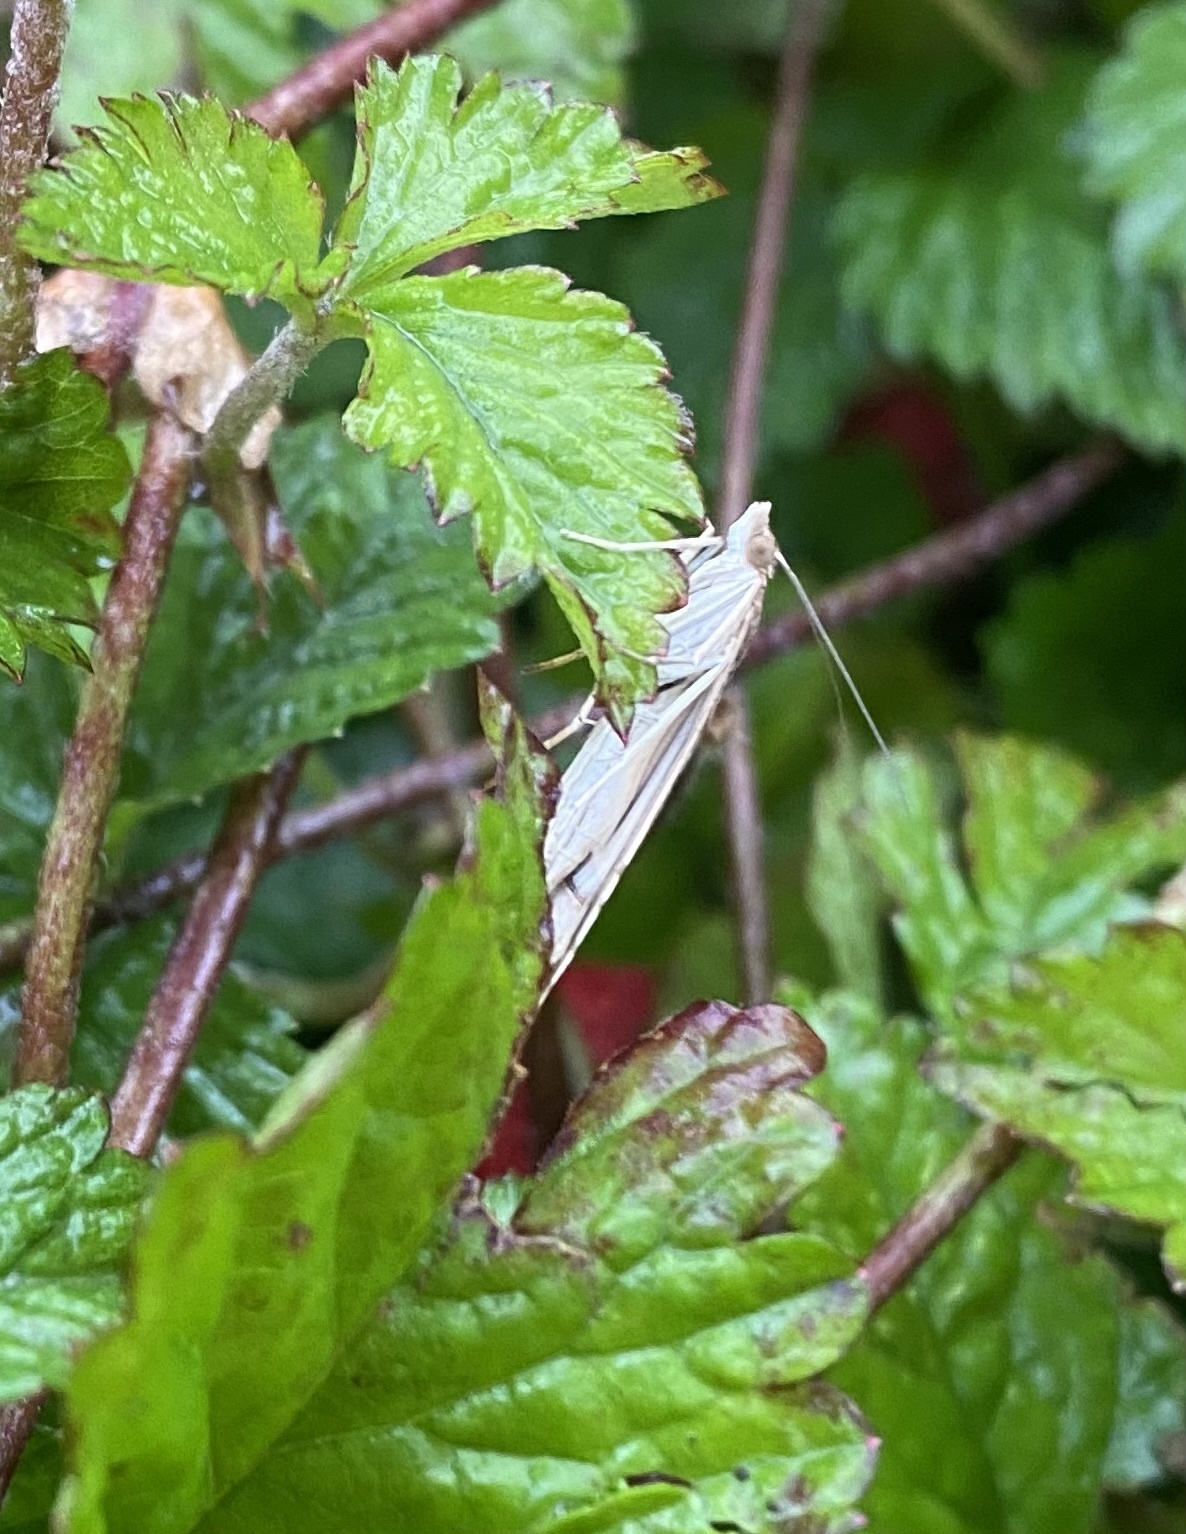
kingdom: Animalia
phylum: Arthropoda
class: Insecta
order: Lepidoptera
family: Crambidae
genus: Nomophila
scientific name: Nomophila noctuella
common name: Rush veneer
